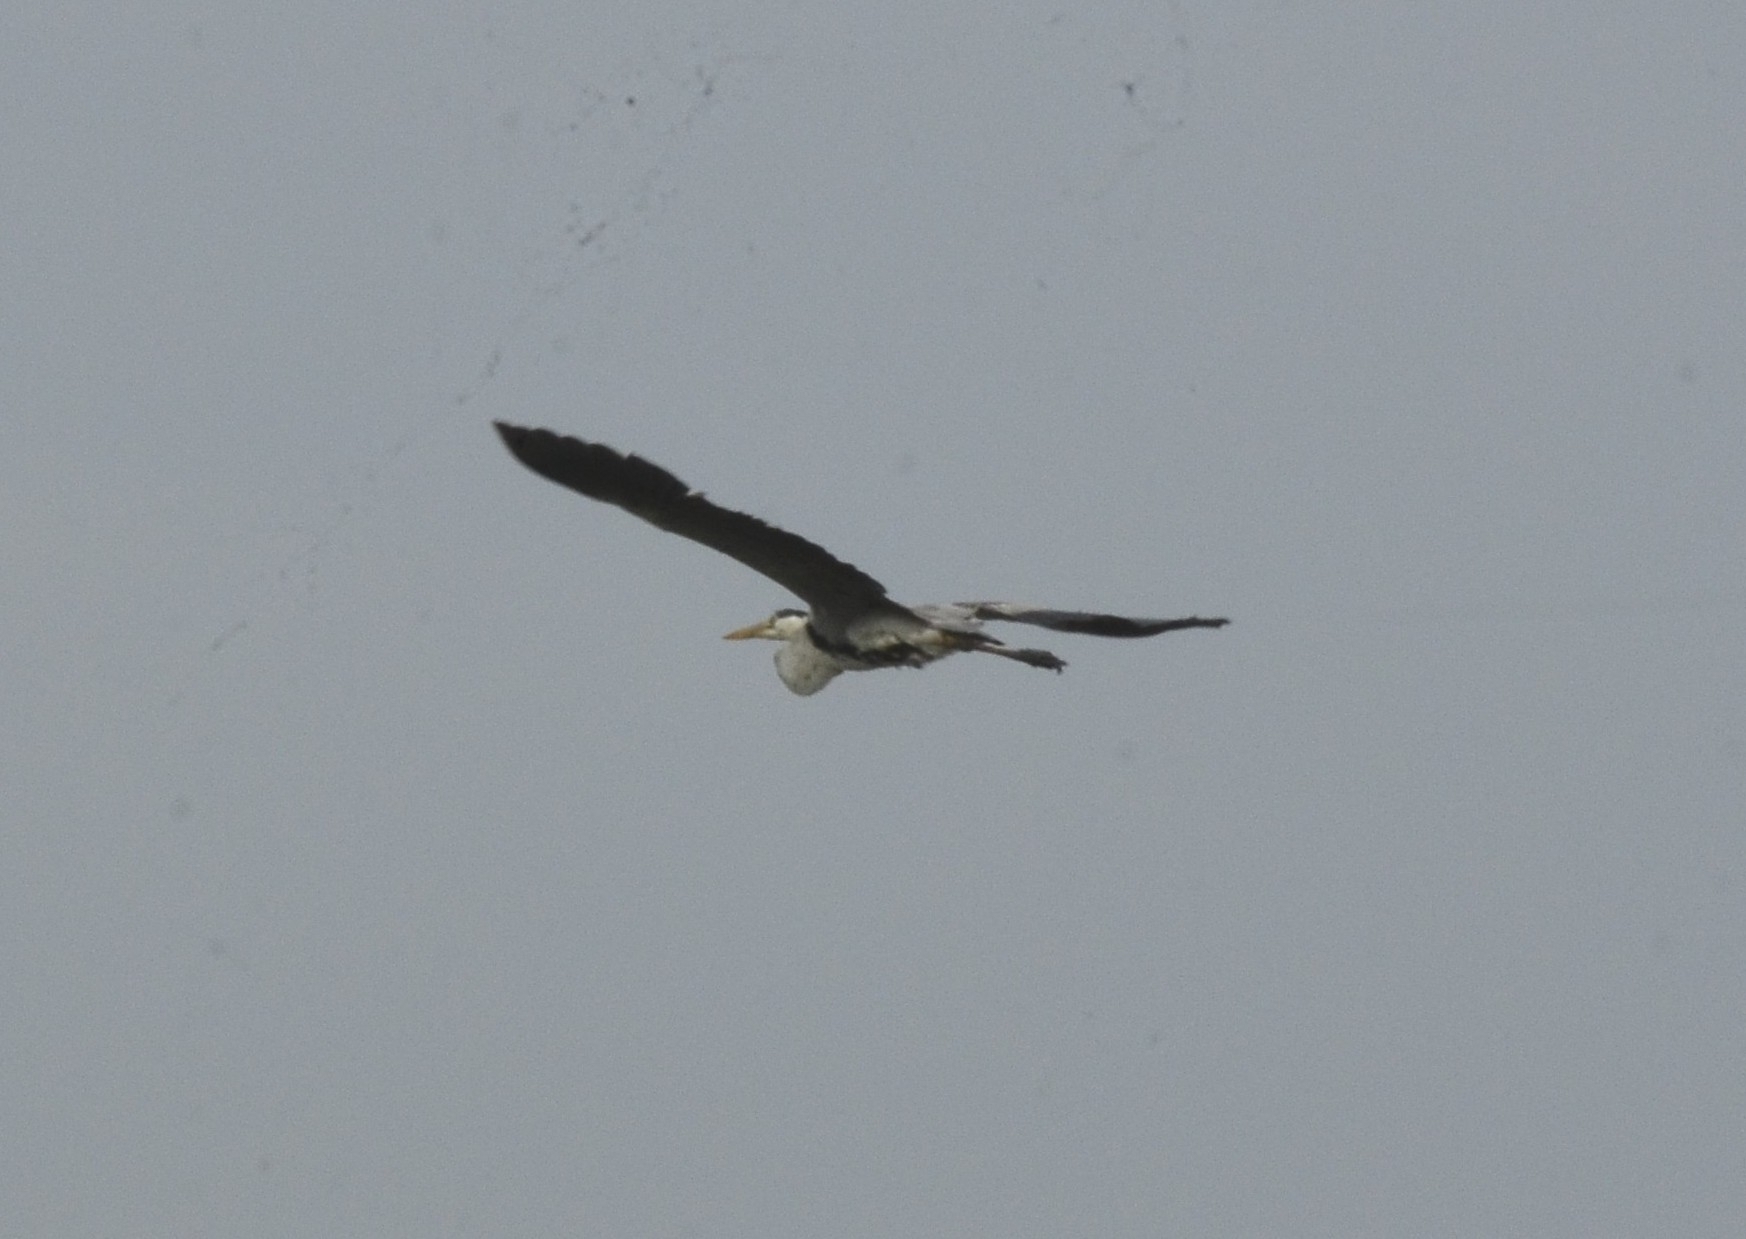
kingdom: Animalia
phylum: Chordata
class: Aves
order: Pelecaniformes
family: Ardeidae
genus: Ardea
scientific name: Ardea cinerea
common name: Grey heron
